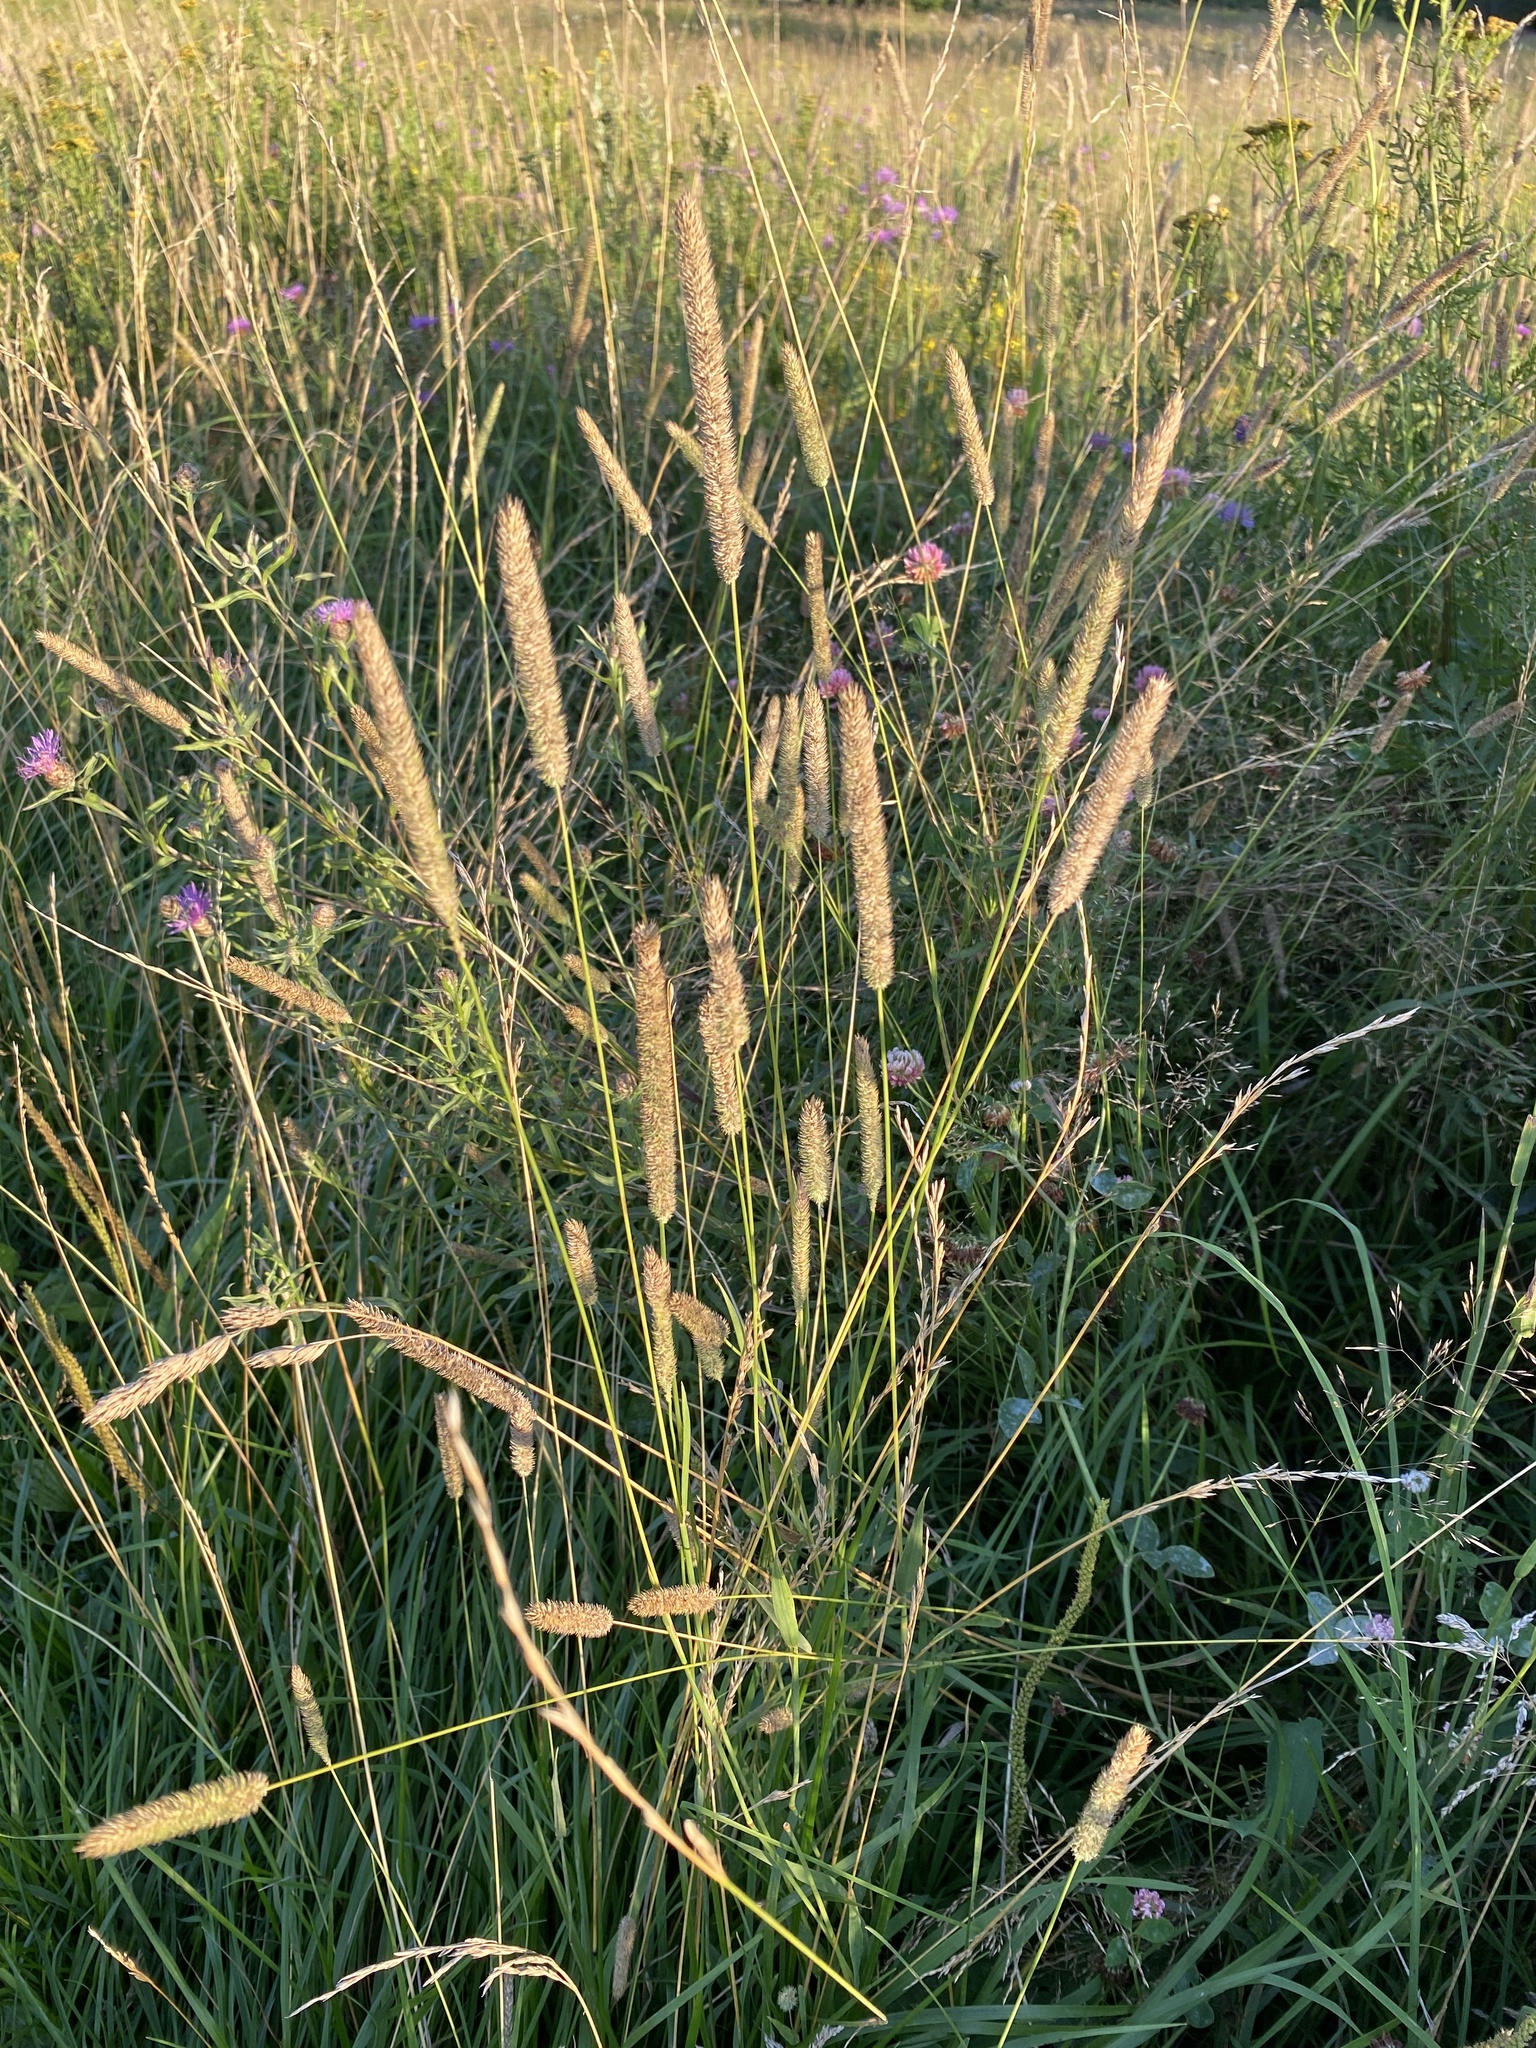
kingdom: Plantae
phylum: Tracheophyta
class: Liliopsida
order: Poales
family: Poaceae
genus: Phleum
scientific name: Phleum pratense
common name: Timothy grass
